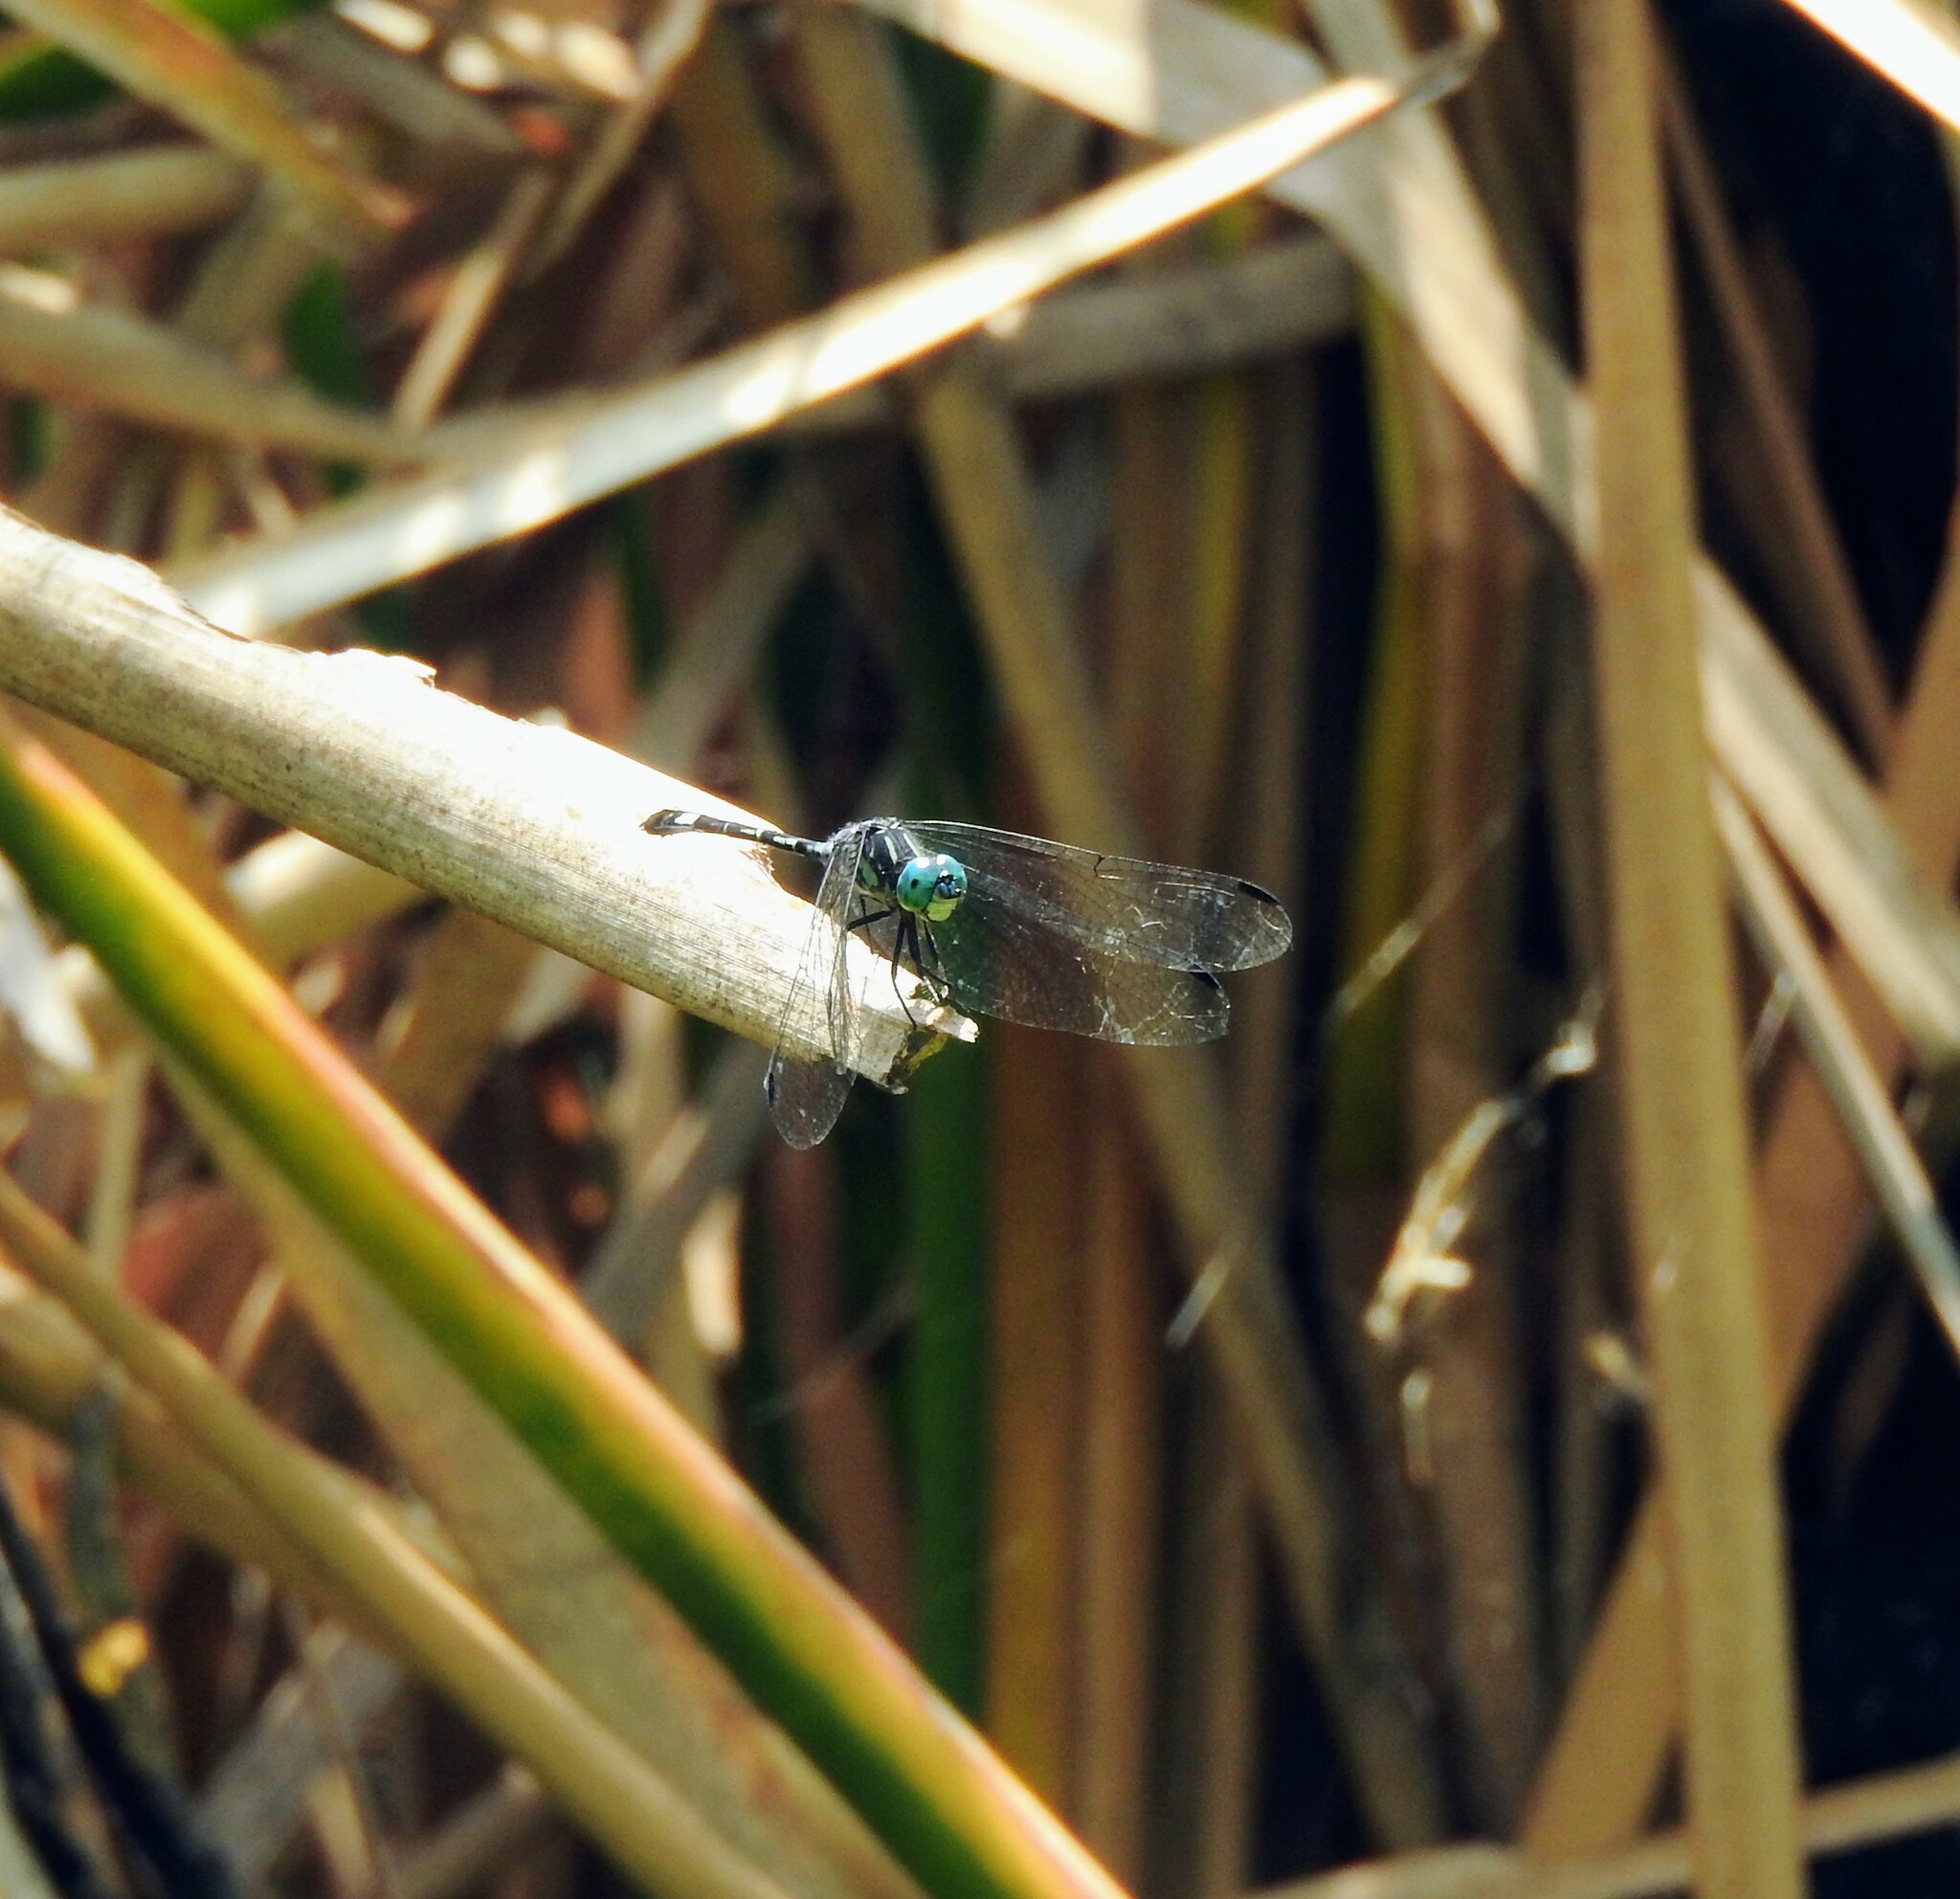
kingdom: Animalia
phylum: Arthropoda
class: Insecta
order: Odonata
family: Libellulidae
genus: Micrathyria
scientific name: Micrathyria hagenii
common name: Thornbush dasher
